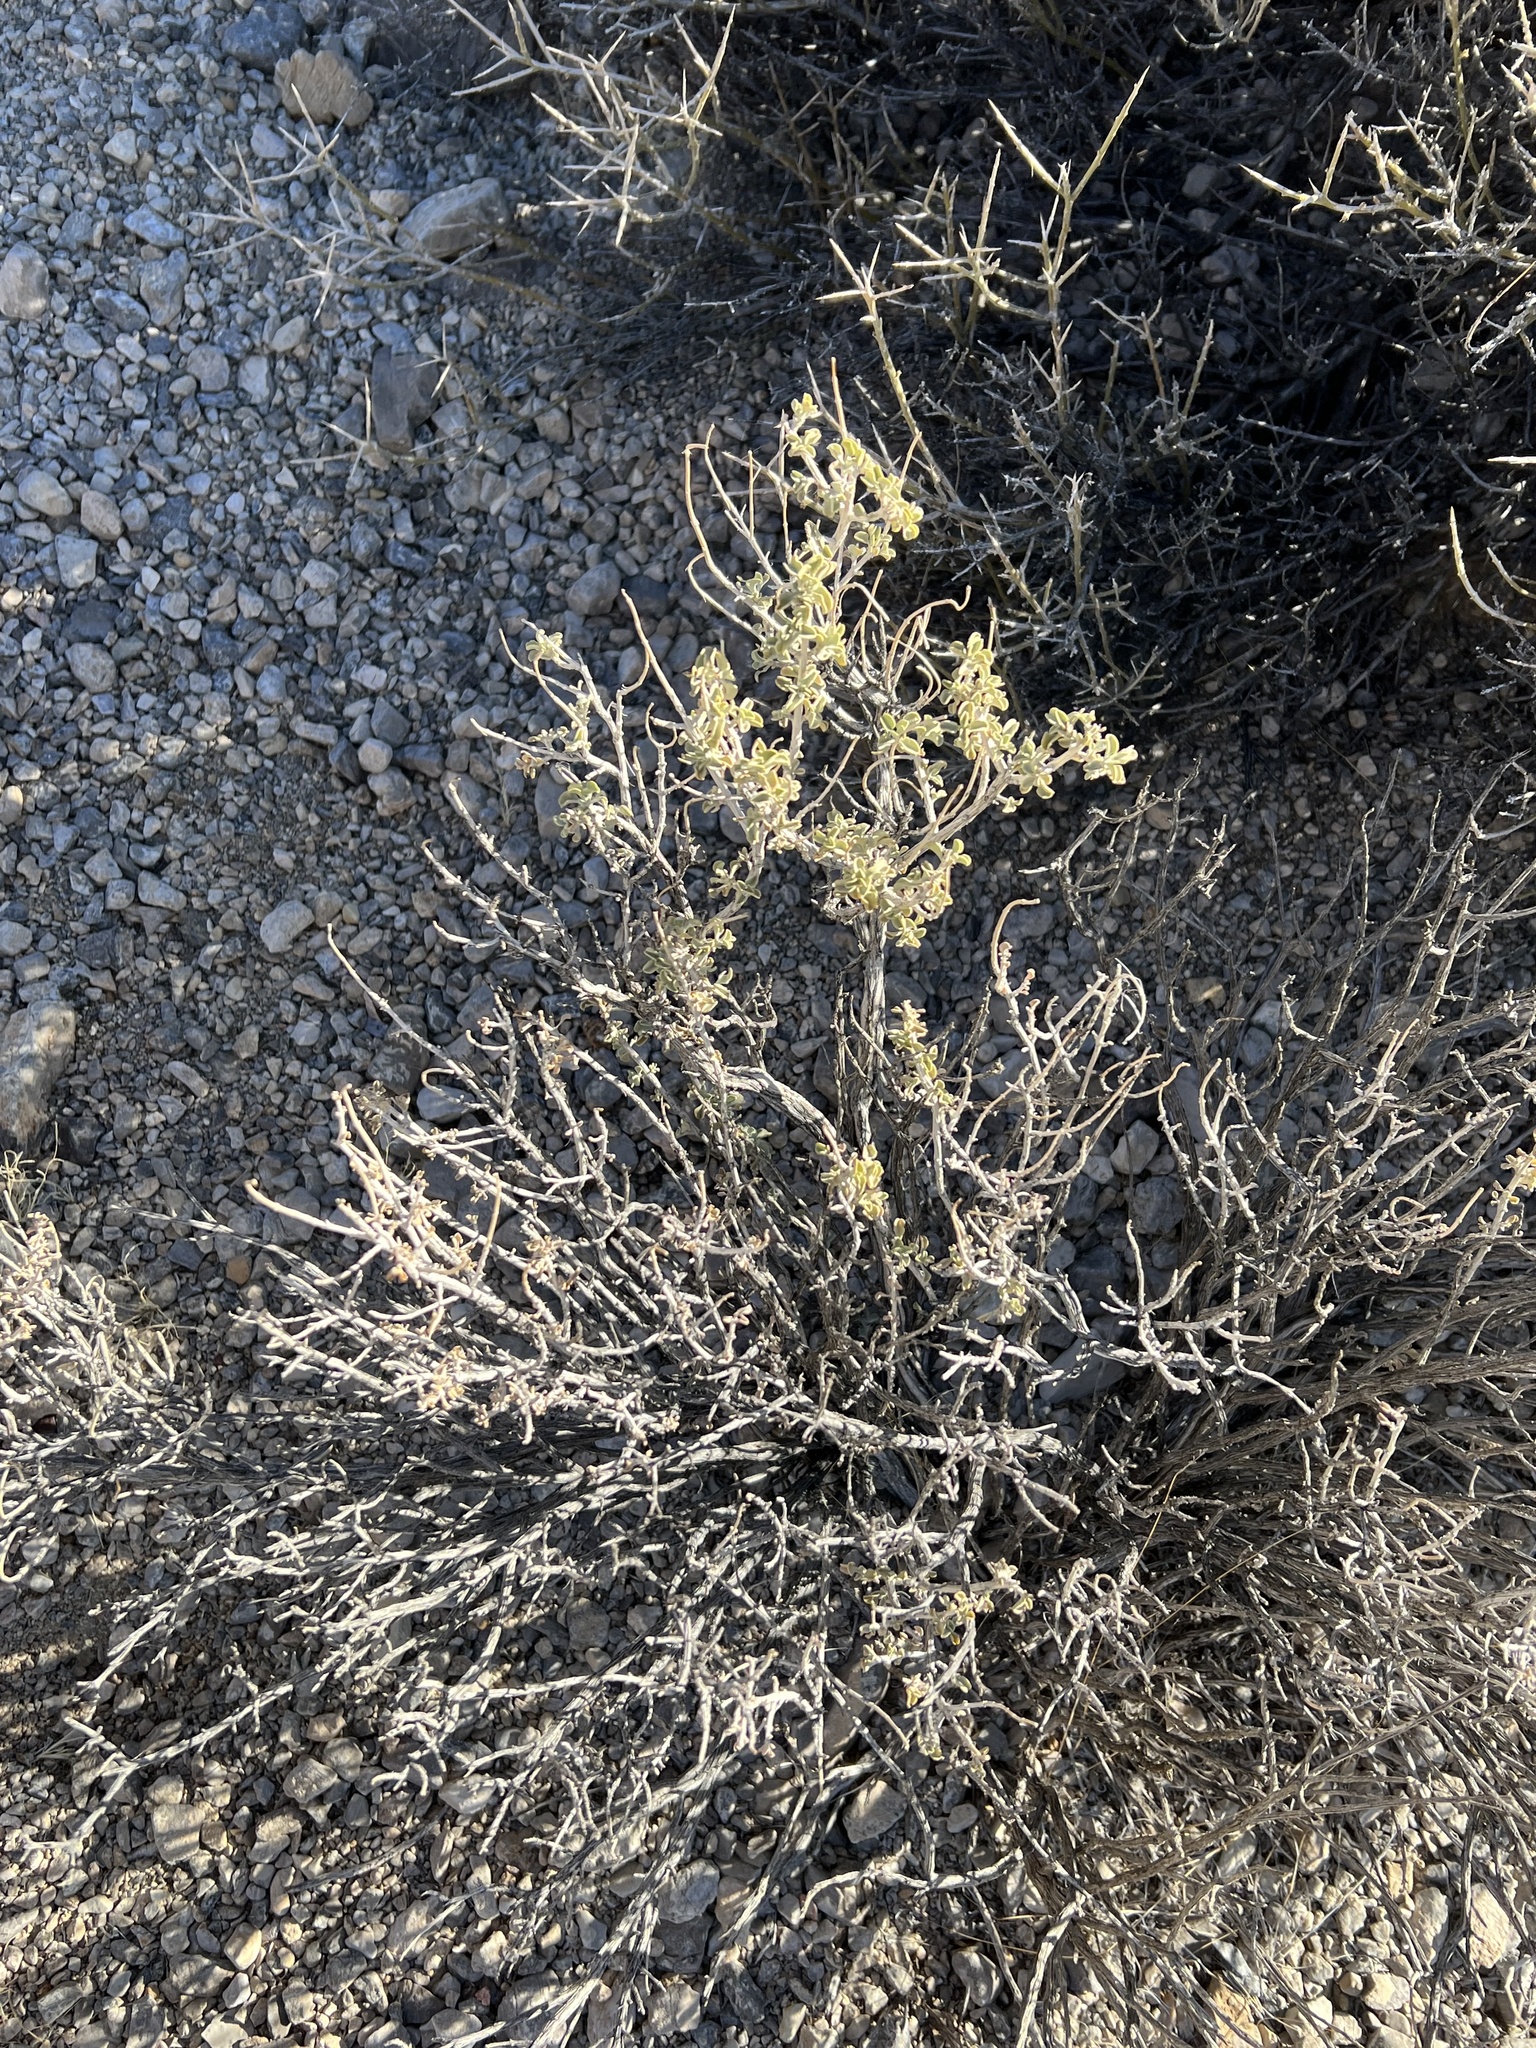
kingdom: Plantae
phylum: Tracheophyta
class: Magnoliopsida
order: Caryophyllales
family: Amaranthaceae
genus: Atriplex
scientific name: Atriplex canescens
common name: Four-wing saltbush
